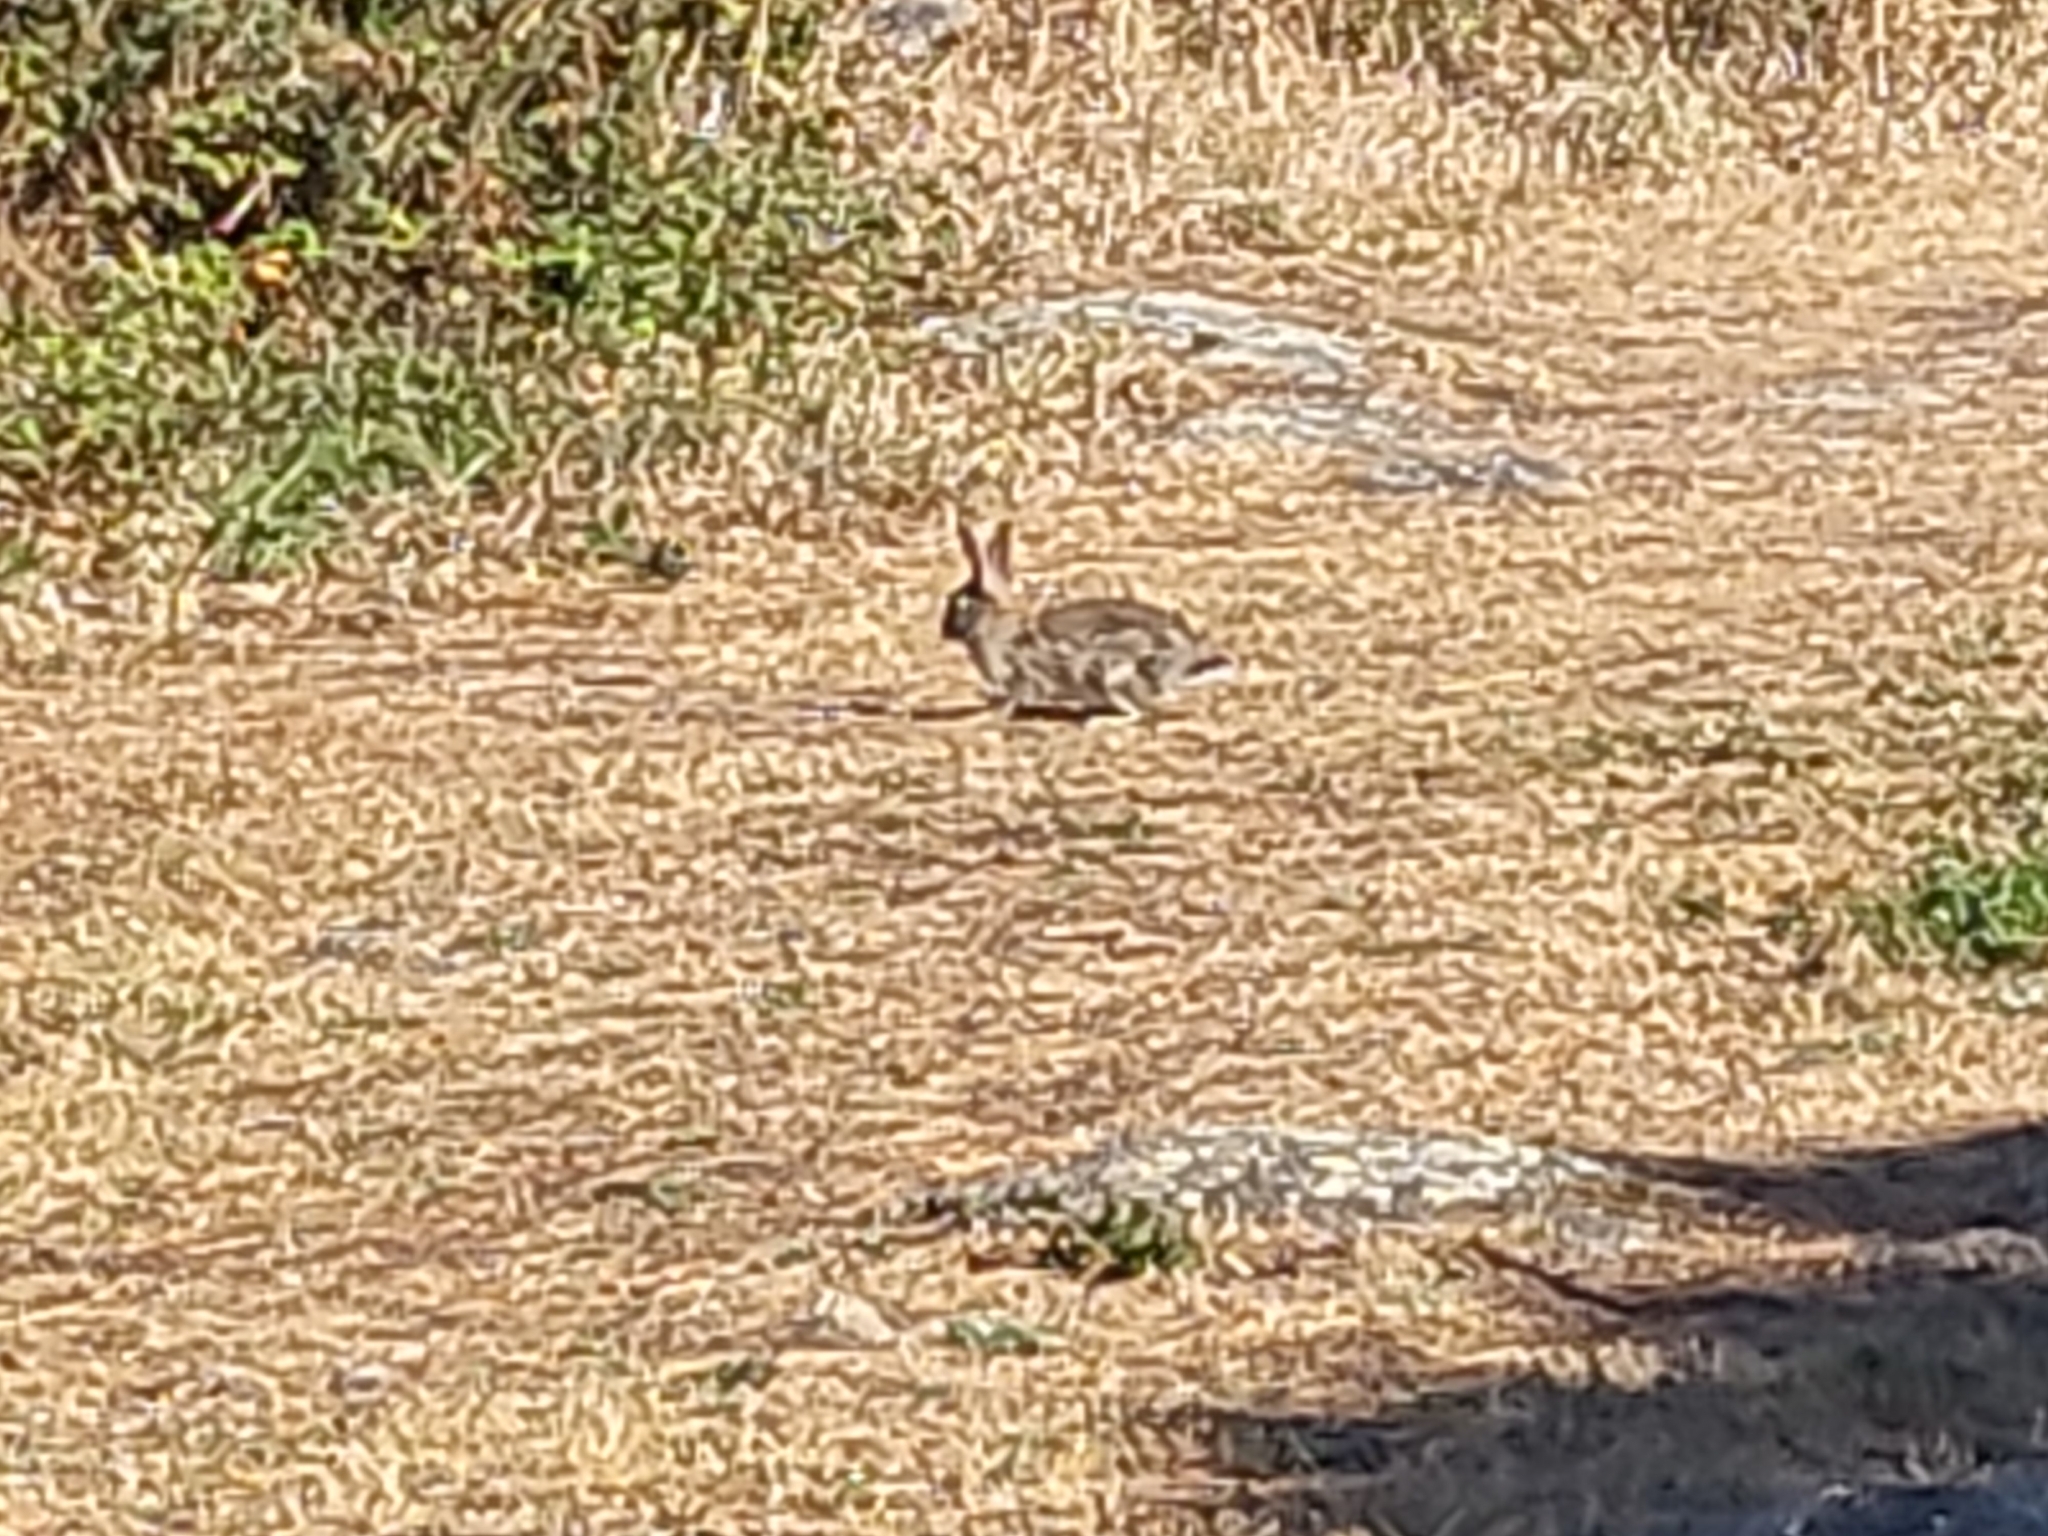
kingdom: Animalia
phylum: Chordata
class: Mammalia
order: Lagomorpha
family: Leporidae
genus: Oryctolagus
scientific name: Oryctolagus cuniculus
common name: European rabbit
